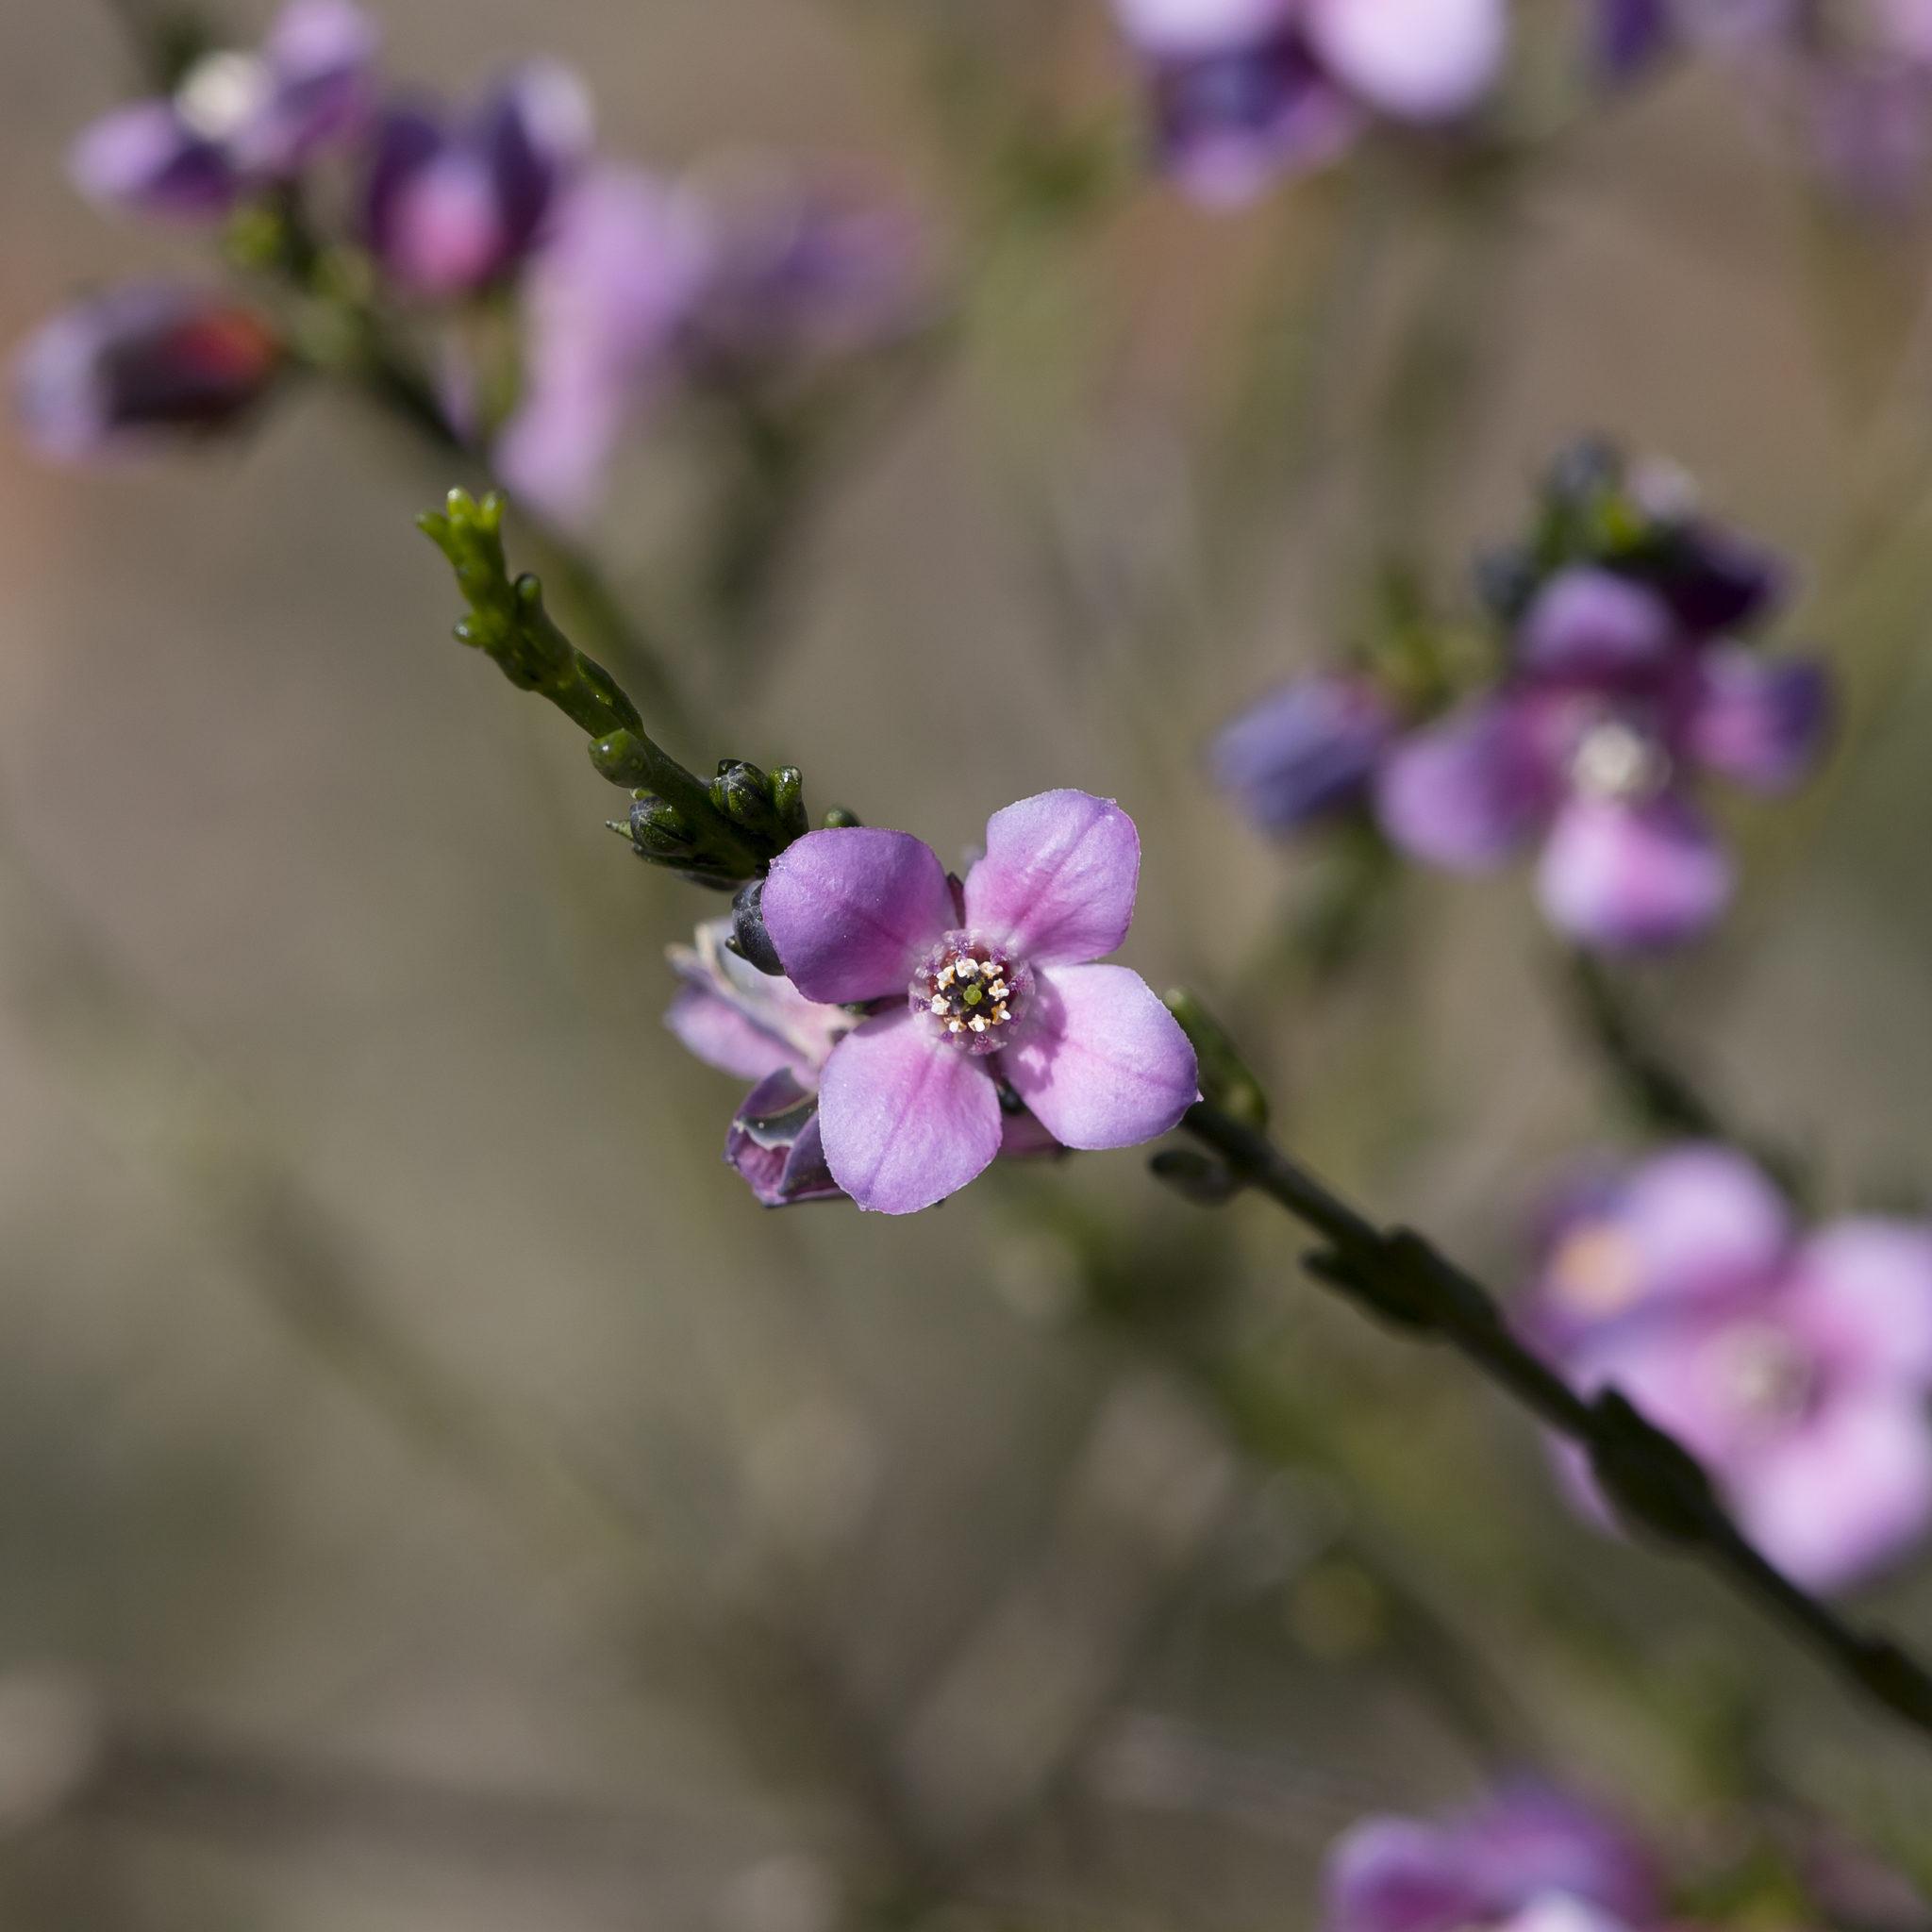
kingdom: Plantae
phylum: Tracheophyta
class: Magnoliopsida
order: Sapindales
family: Rutaceae
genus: Cyanothamnus
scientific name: Cyanothamnus coerulescens
